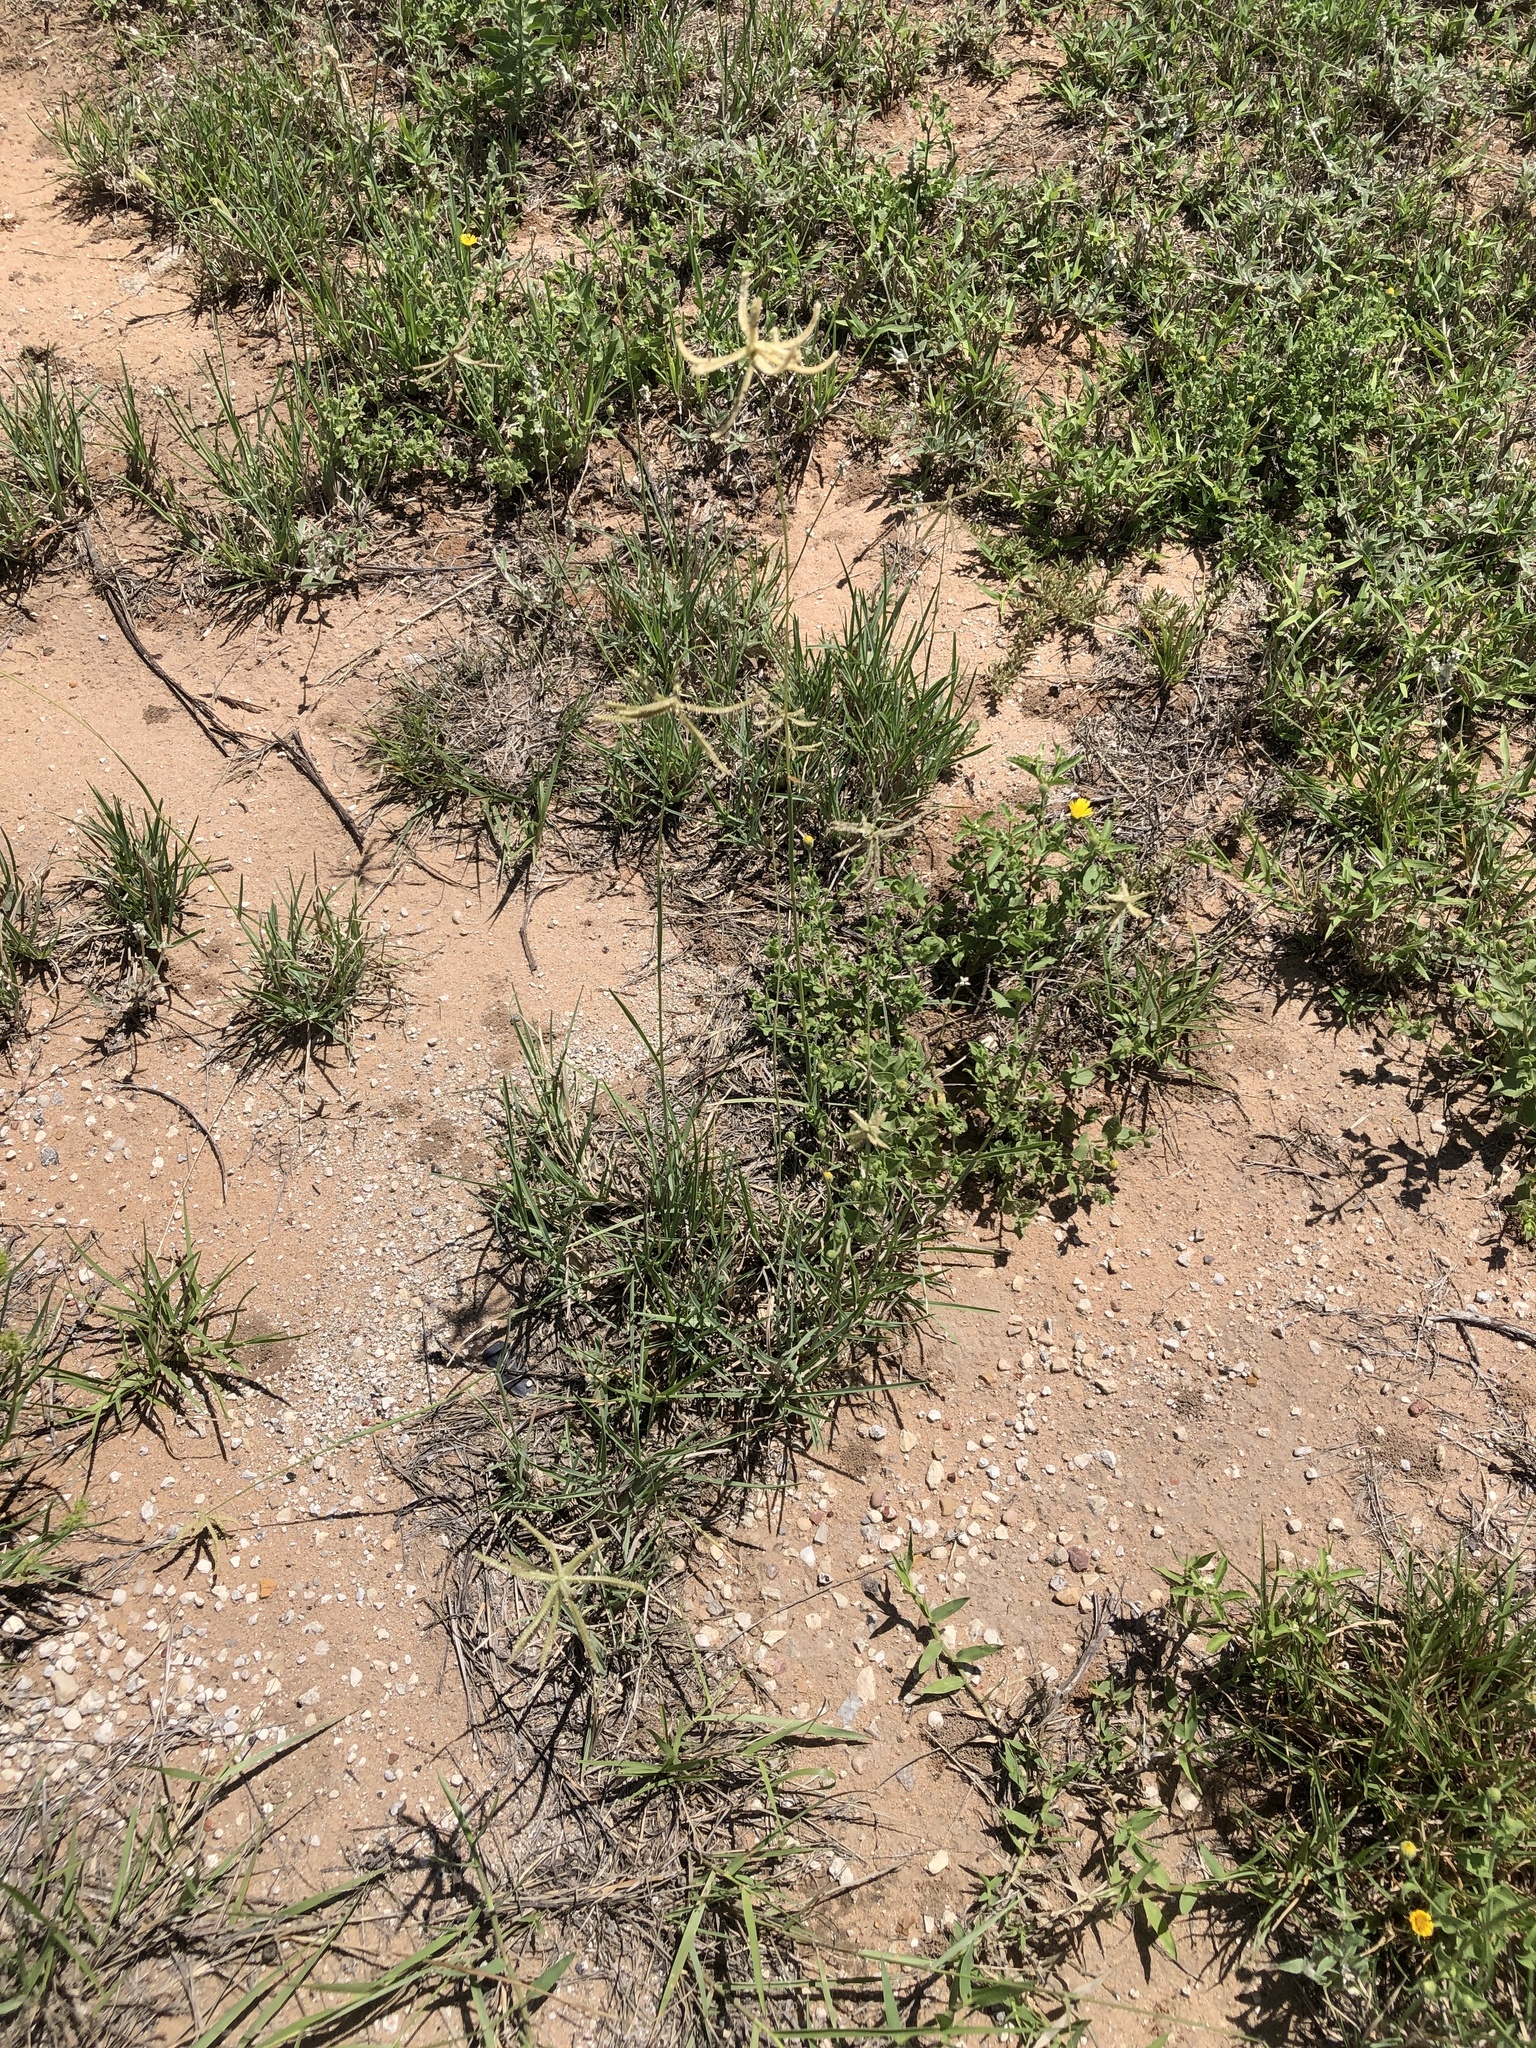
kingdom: Plantae
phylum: Tracheophyta
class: Liliopsida
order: Poales
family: Poaceae
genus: Chloris
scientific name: Chloris cucullata
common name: Hooded windmill grass
